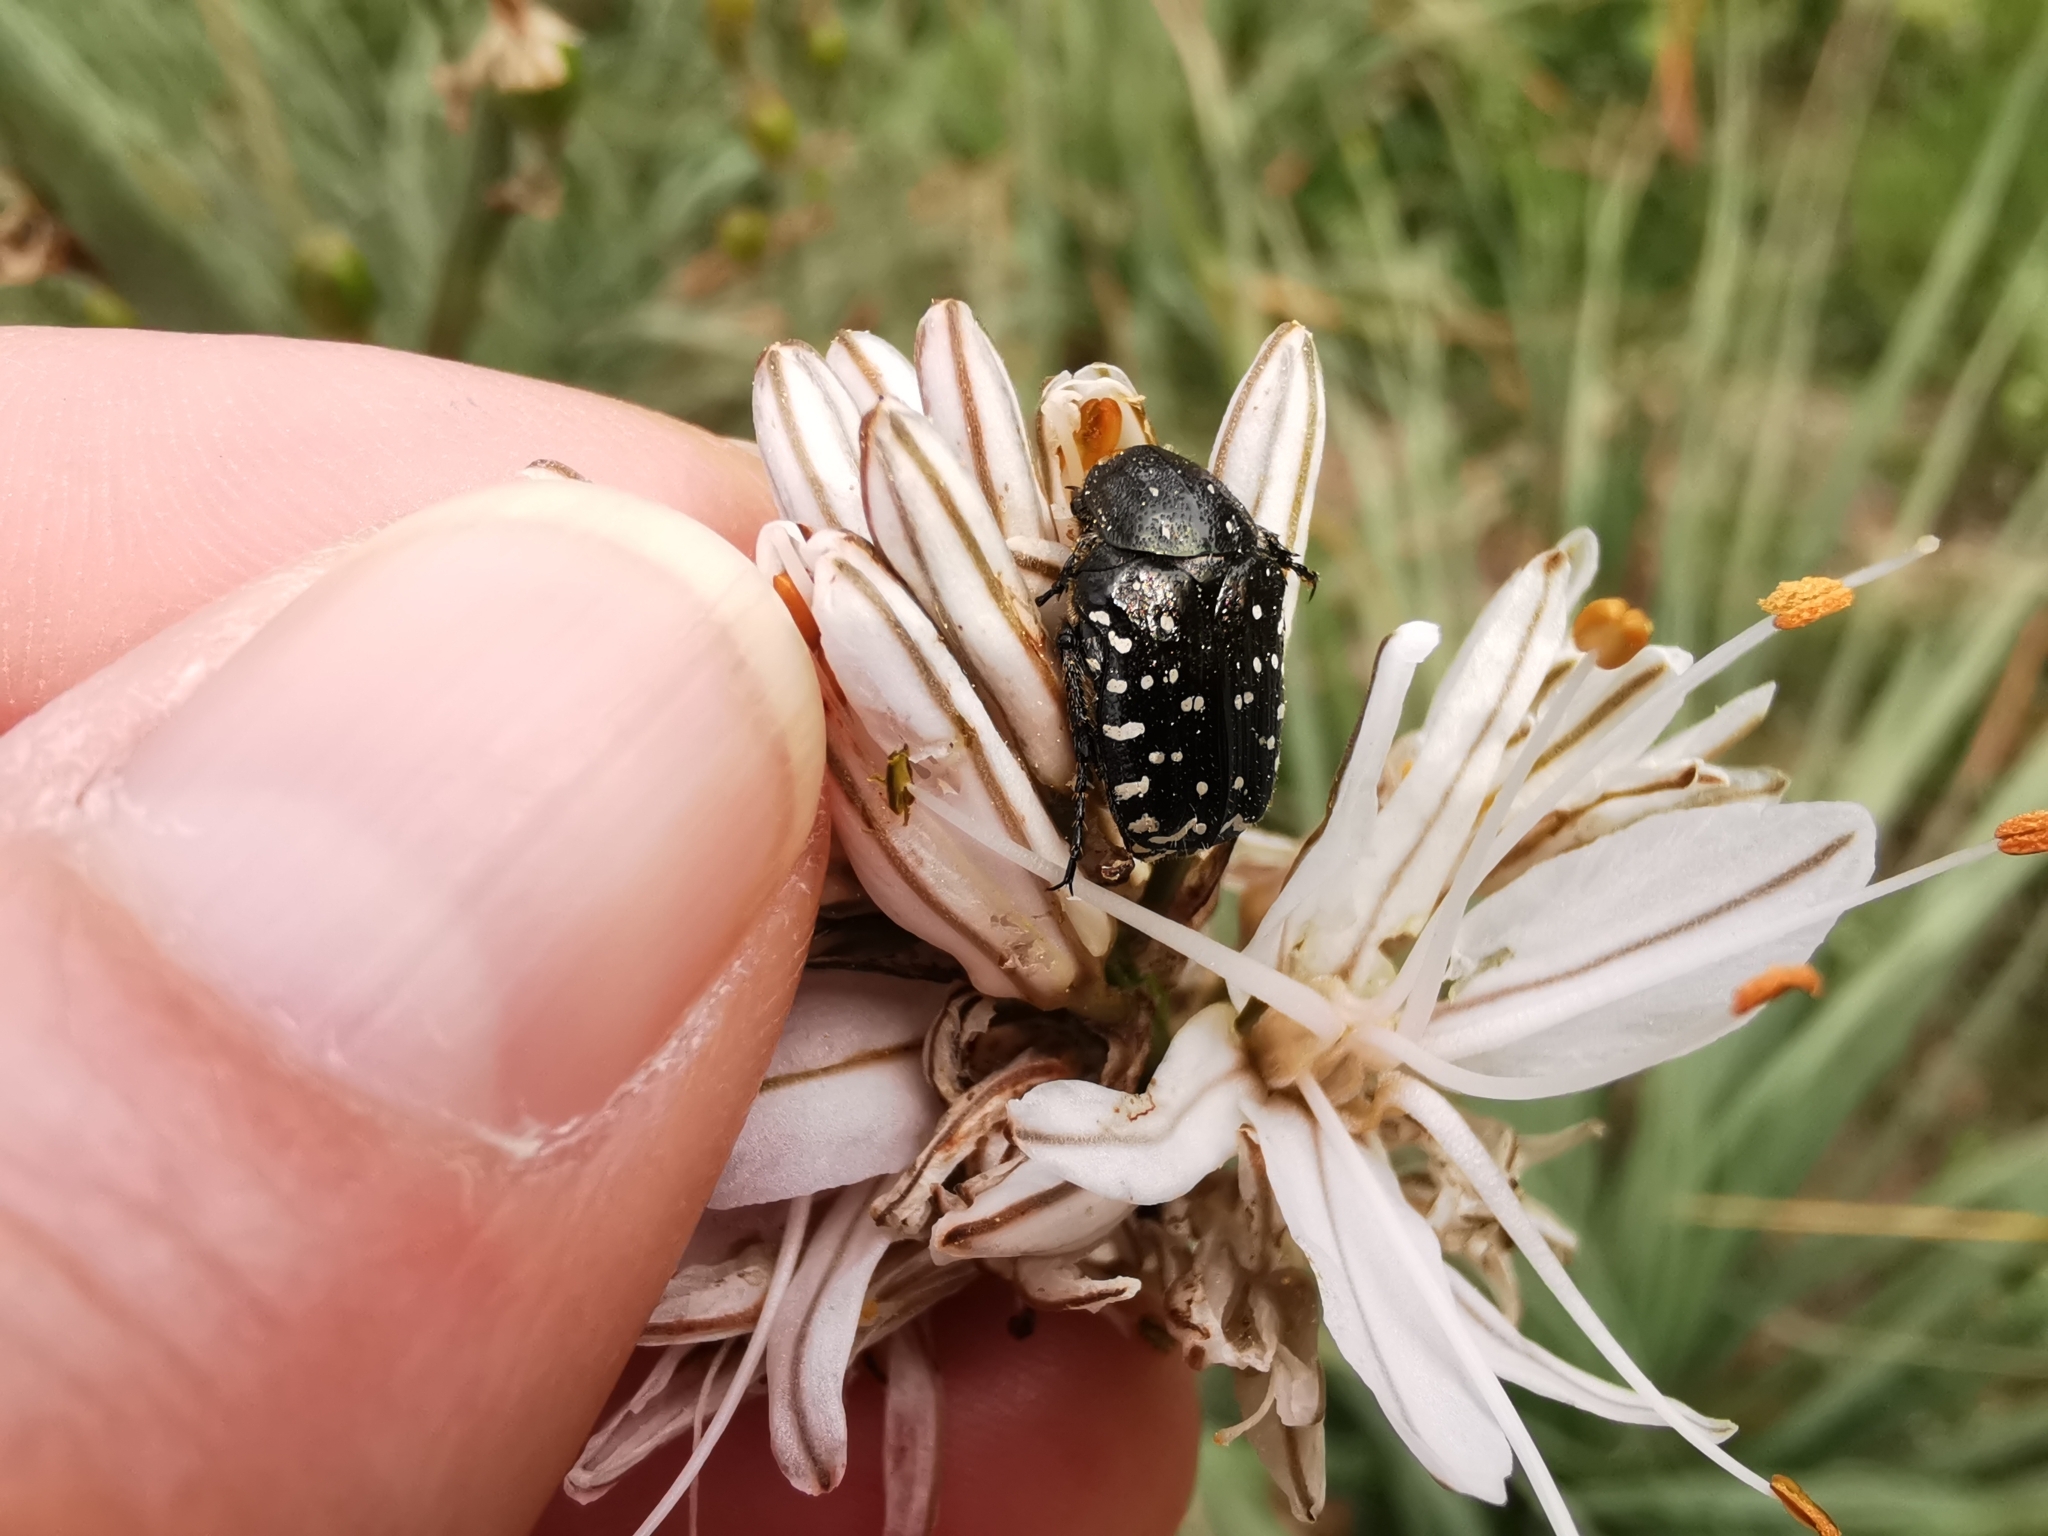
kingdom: Animalia
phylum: Arthropoda
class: Insecta
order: Coleoptera
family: Scarabaeidae
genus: Oxythyrea
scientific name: Oxythyrea funesta
